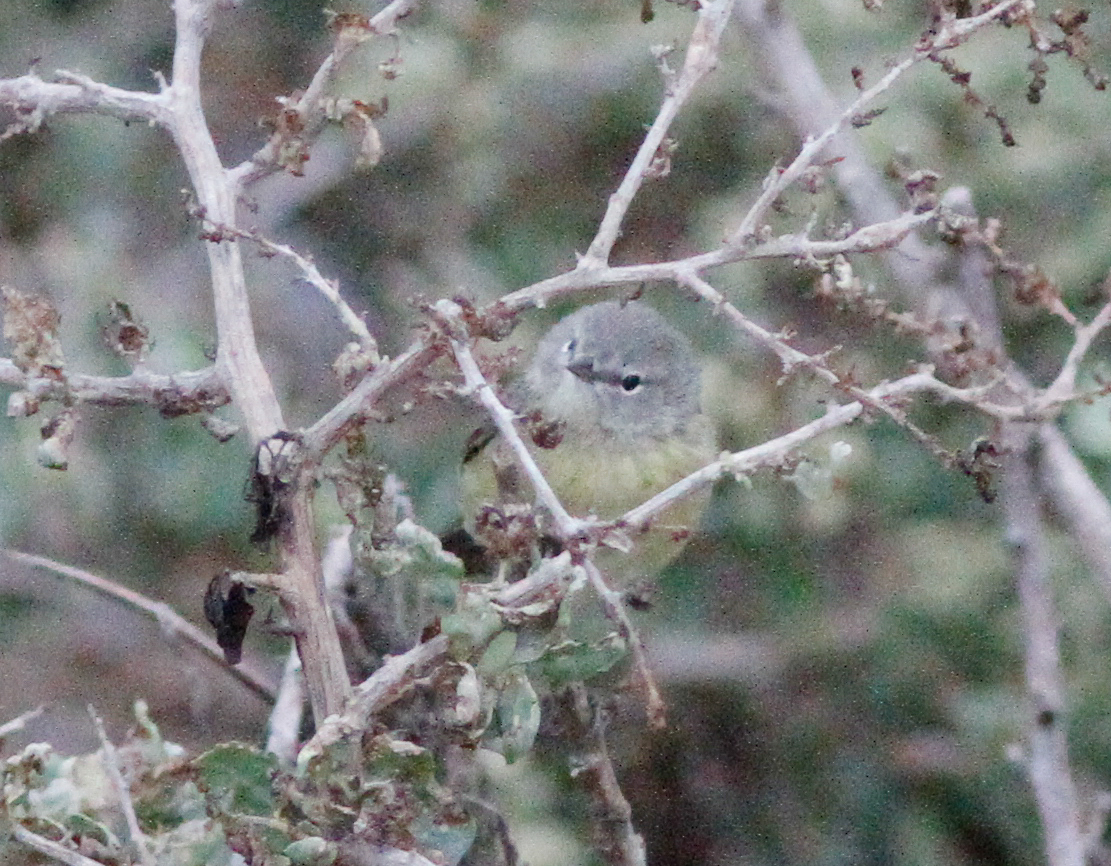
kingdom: Animalia
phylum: Chordata
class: Aves
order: Passeriformes
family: Parulidae
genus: Leiothlypis
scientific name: Leiothlypis celata
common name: Orange-crowned warbler
